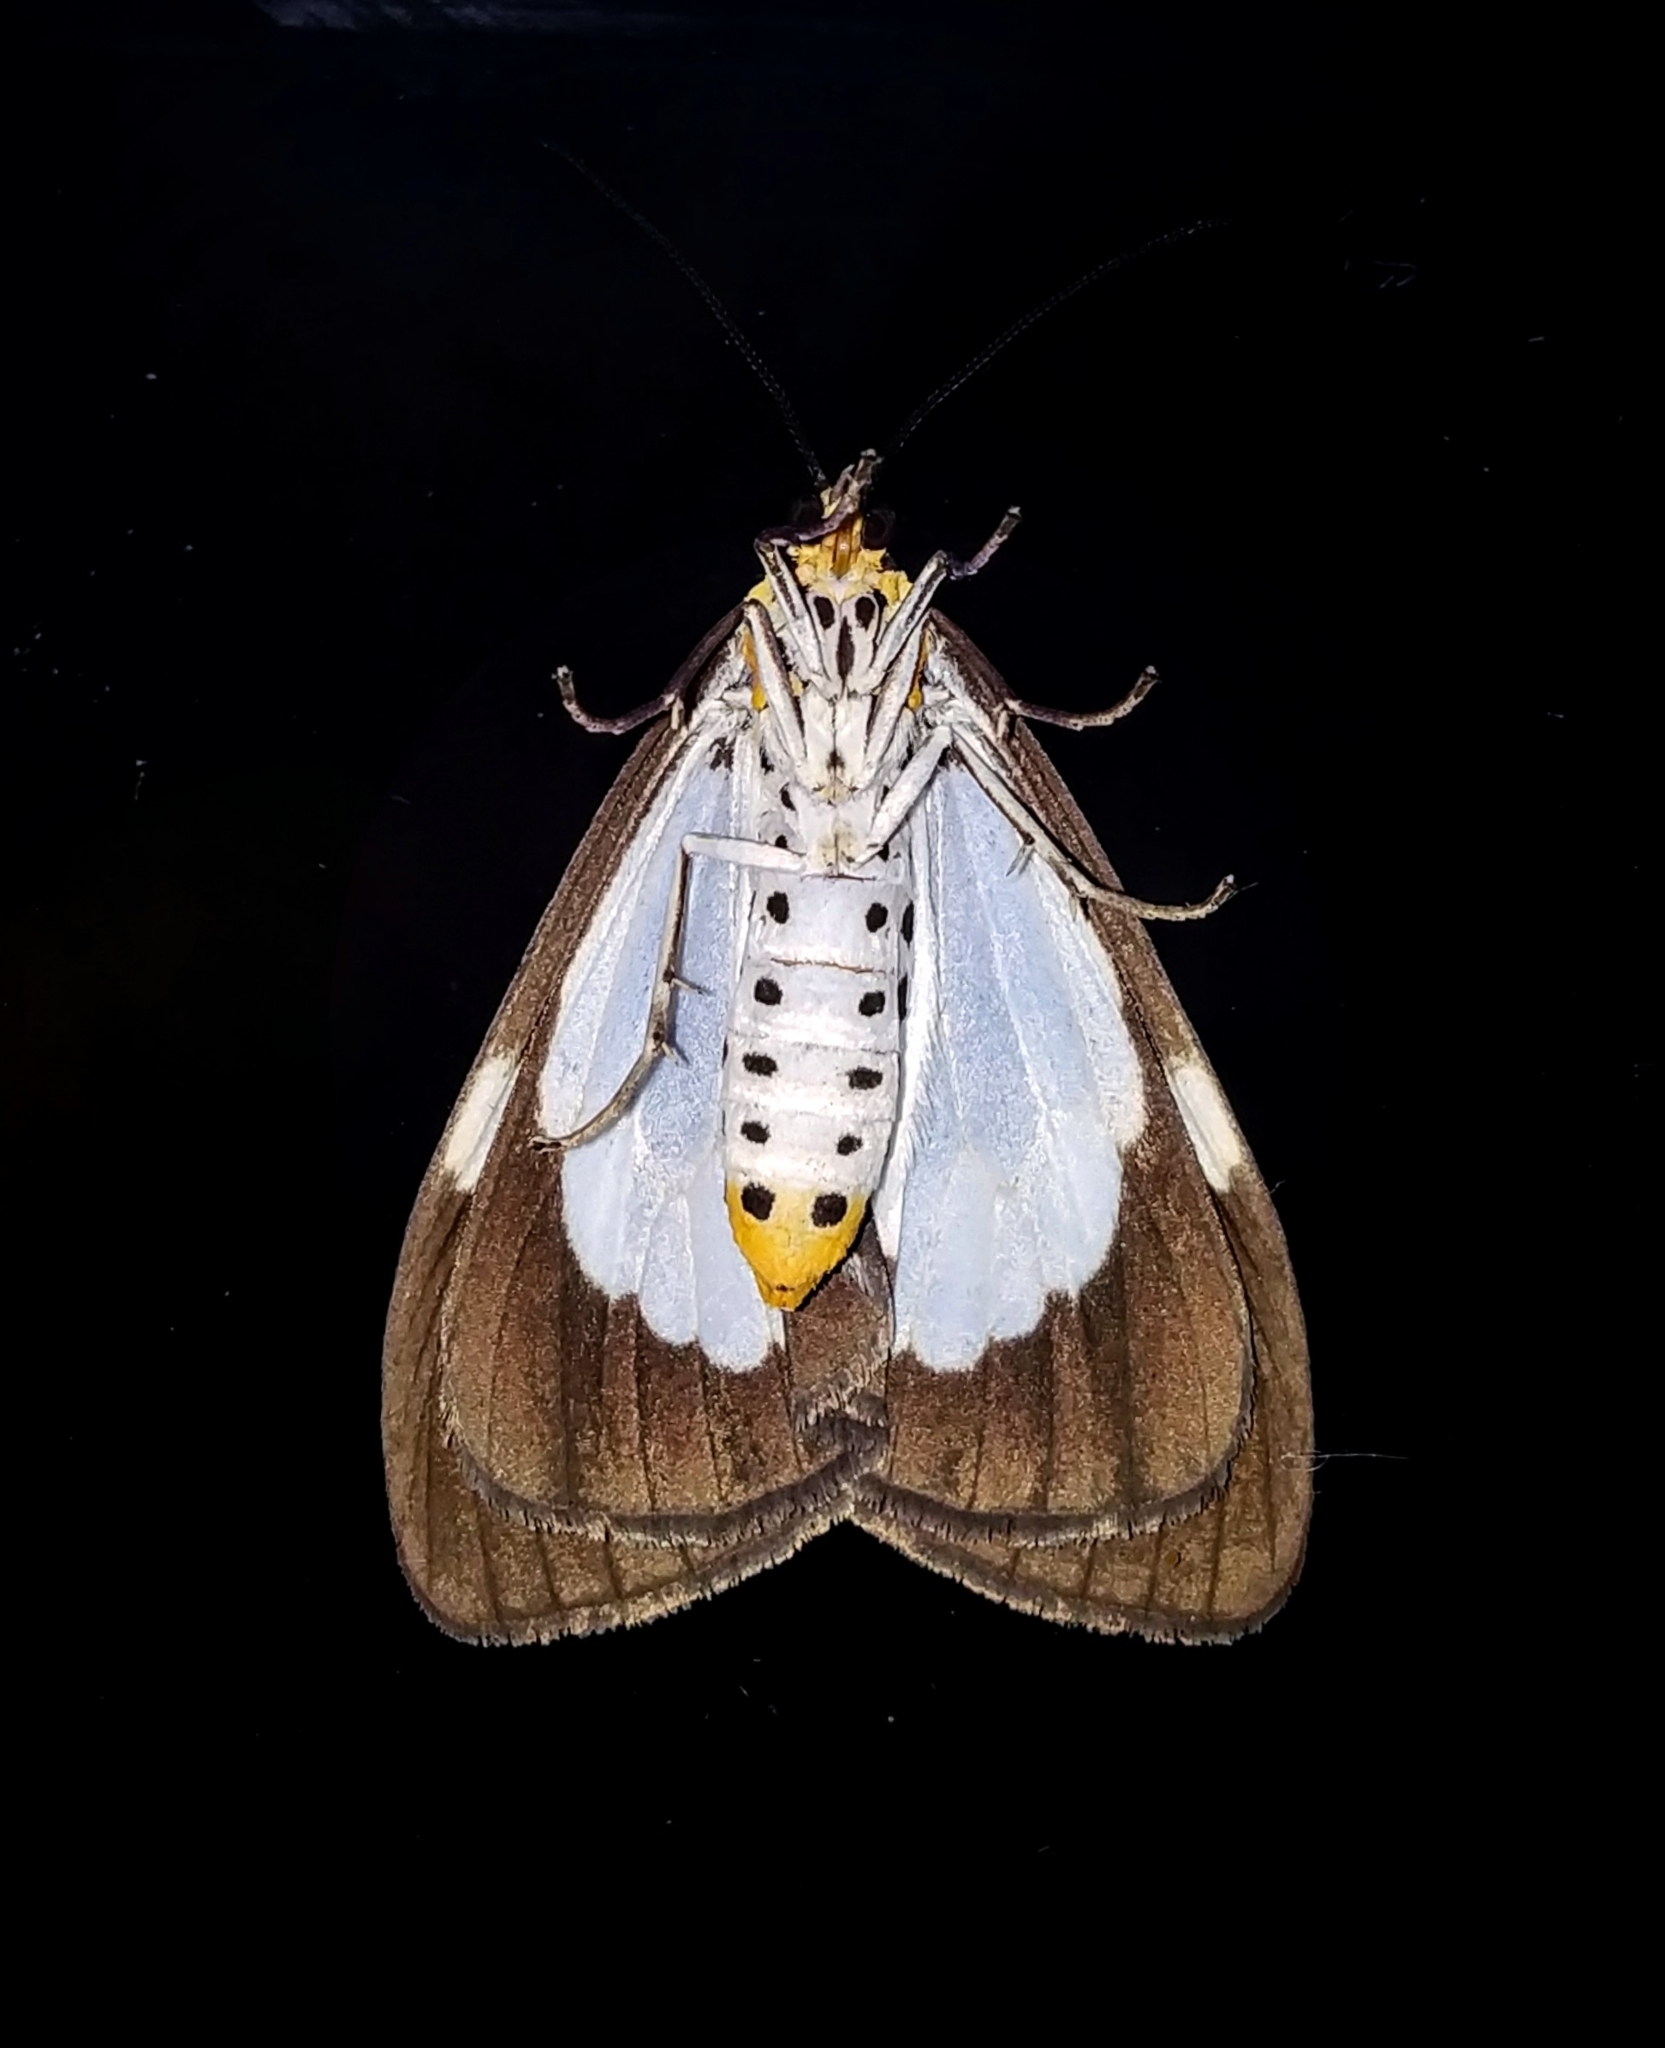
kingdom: Animalia
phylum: Arthropoda
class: Insecta
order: Lepidoptera
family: Erebidae
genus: Nyctemera
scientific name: Nyctemera lacticinia
